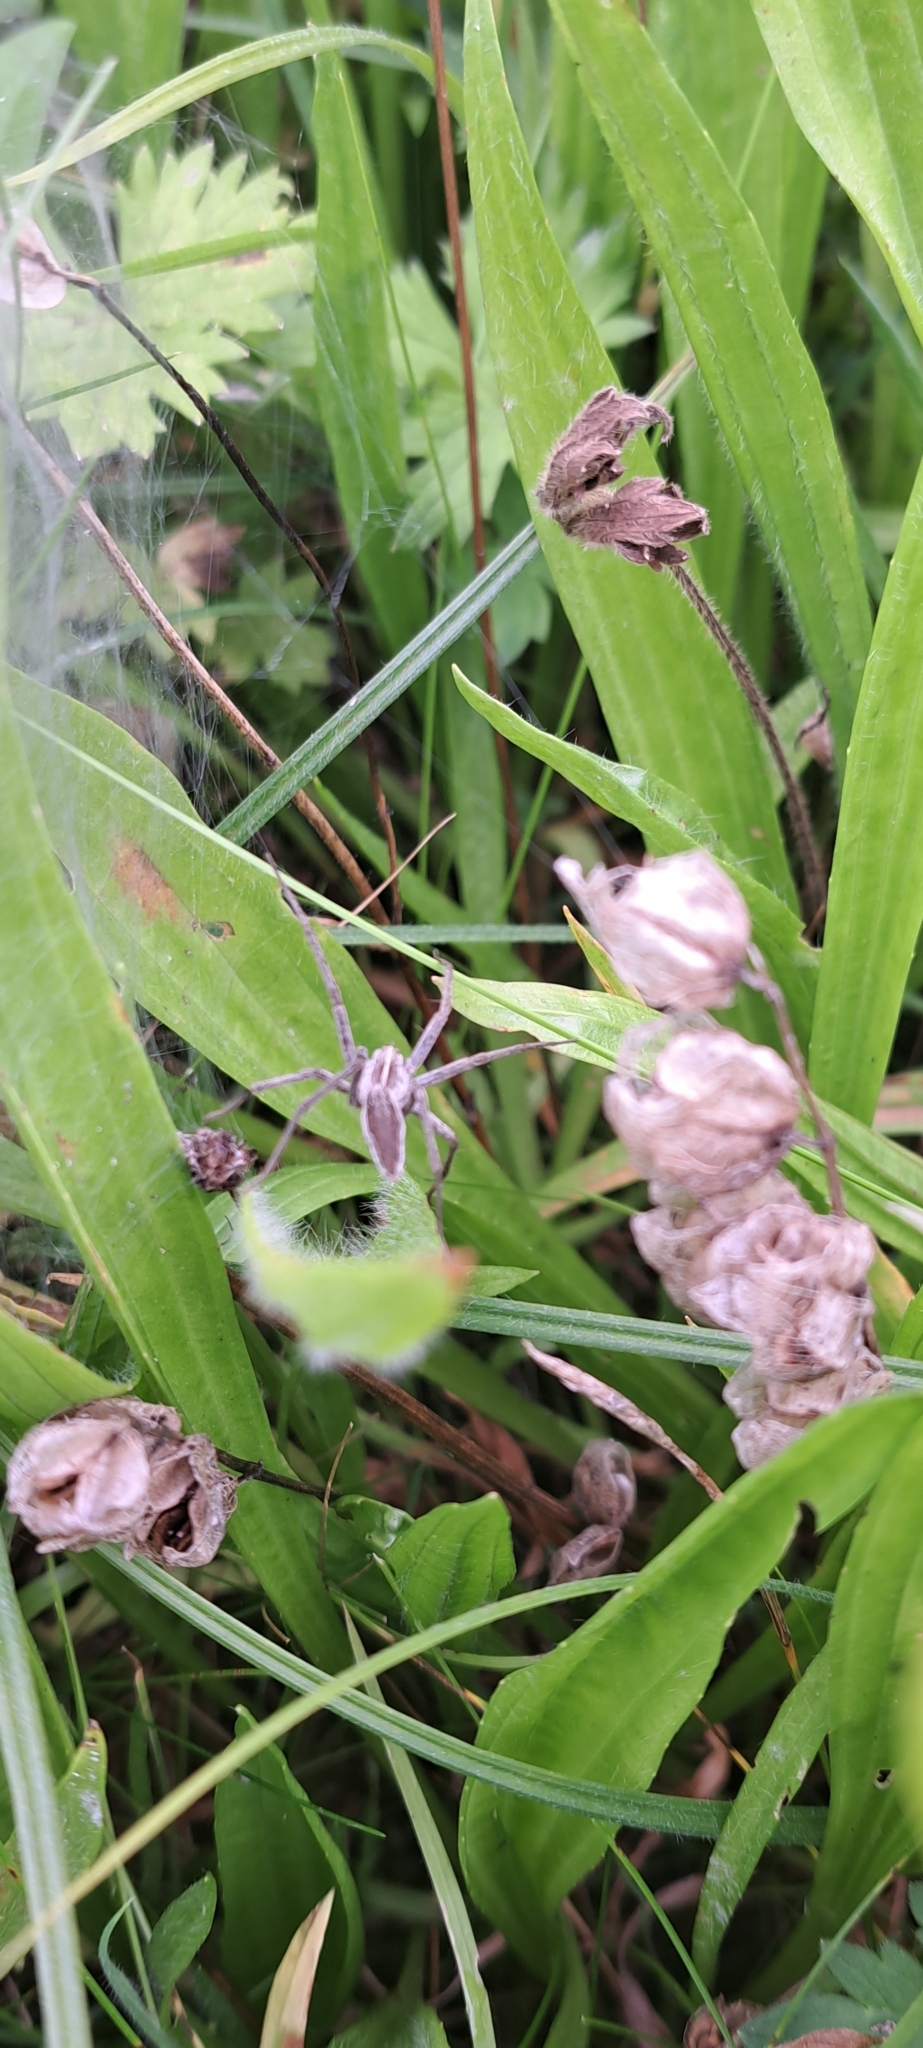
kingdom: Animalia
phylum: Arthropoda
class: Arachnida
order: Araneae
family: Pisauridae
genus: Pisaura
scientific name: Pisaura mirabilis
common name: Tent spider
